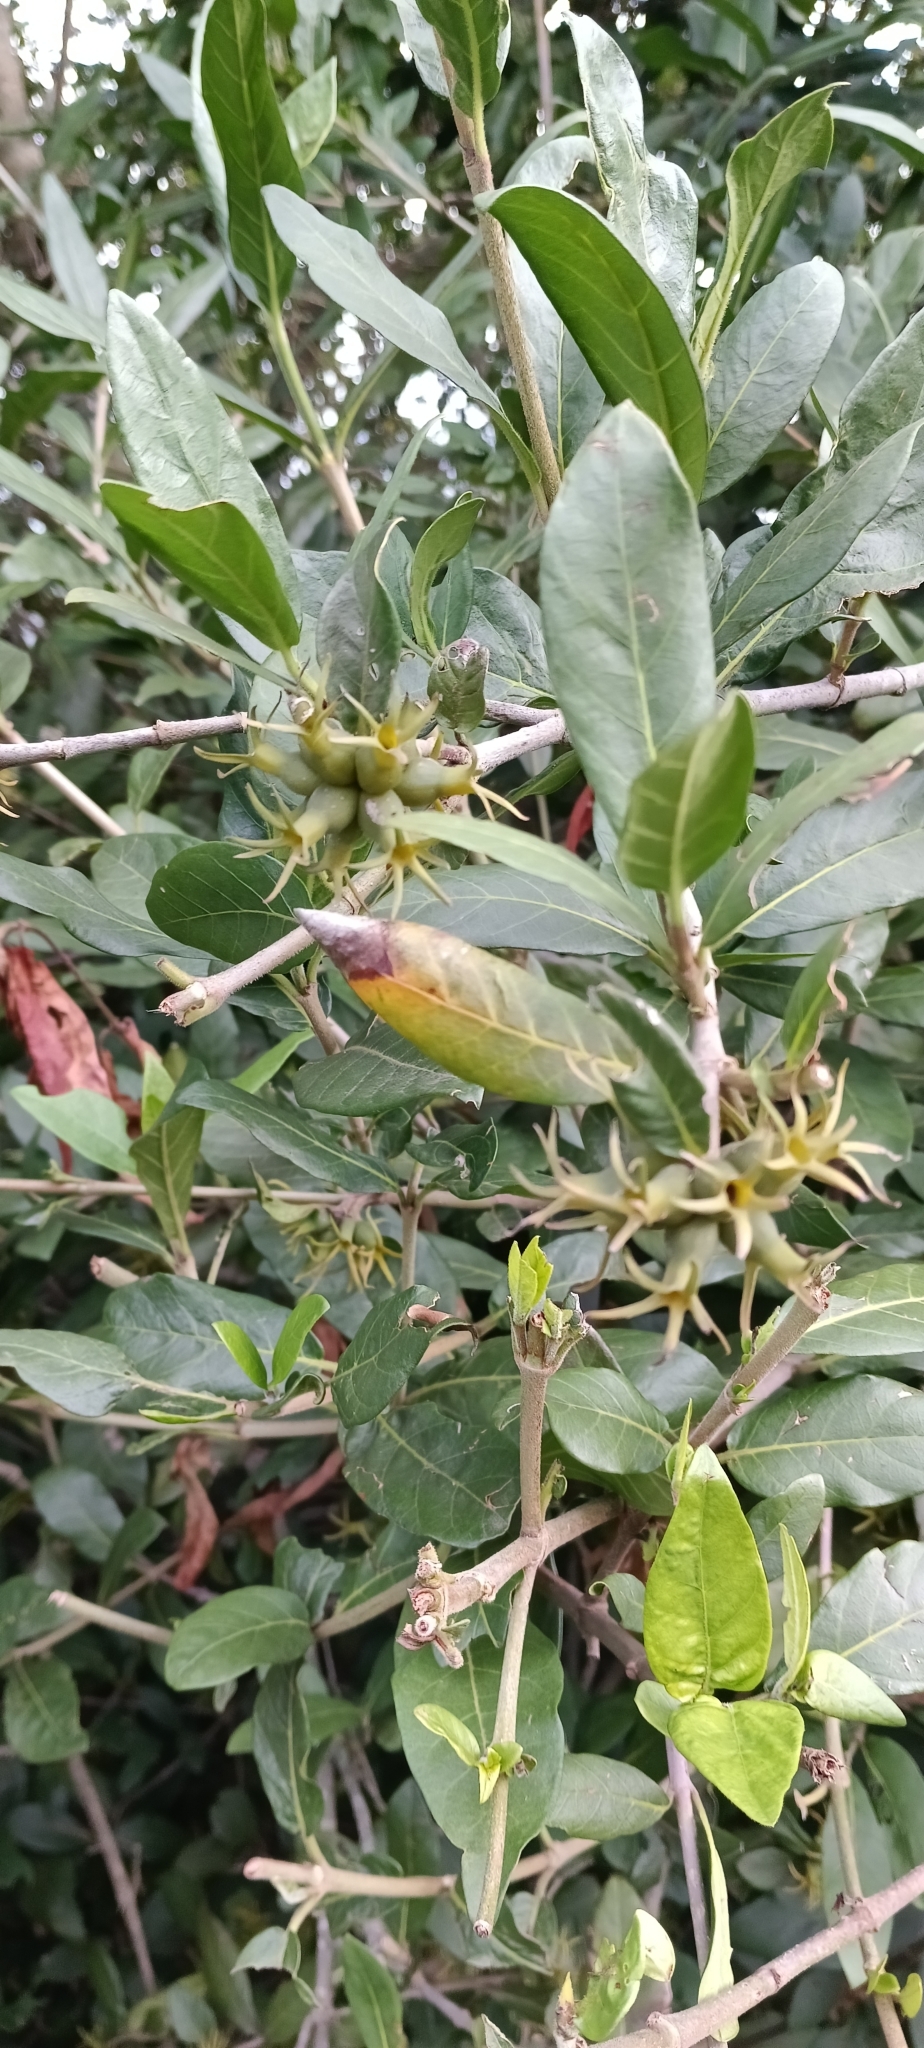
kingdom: Plantae
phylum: Tracheophyta
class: Magnoliopsida
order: Gentianales
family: Rubiaceae
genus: Burchellia
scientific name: Burchellia bubalina
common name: Wild pomegranate
